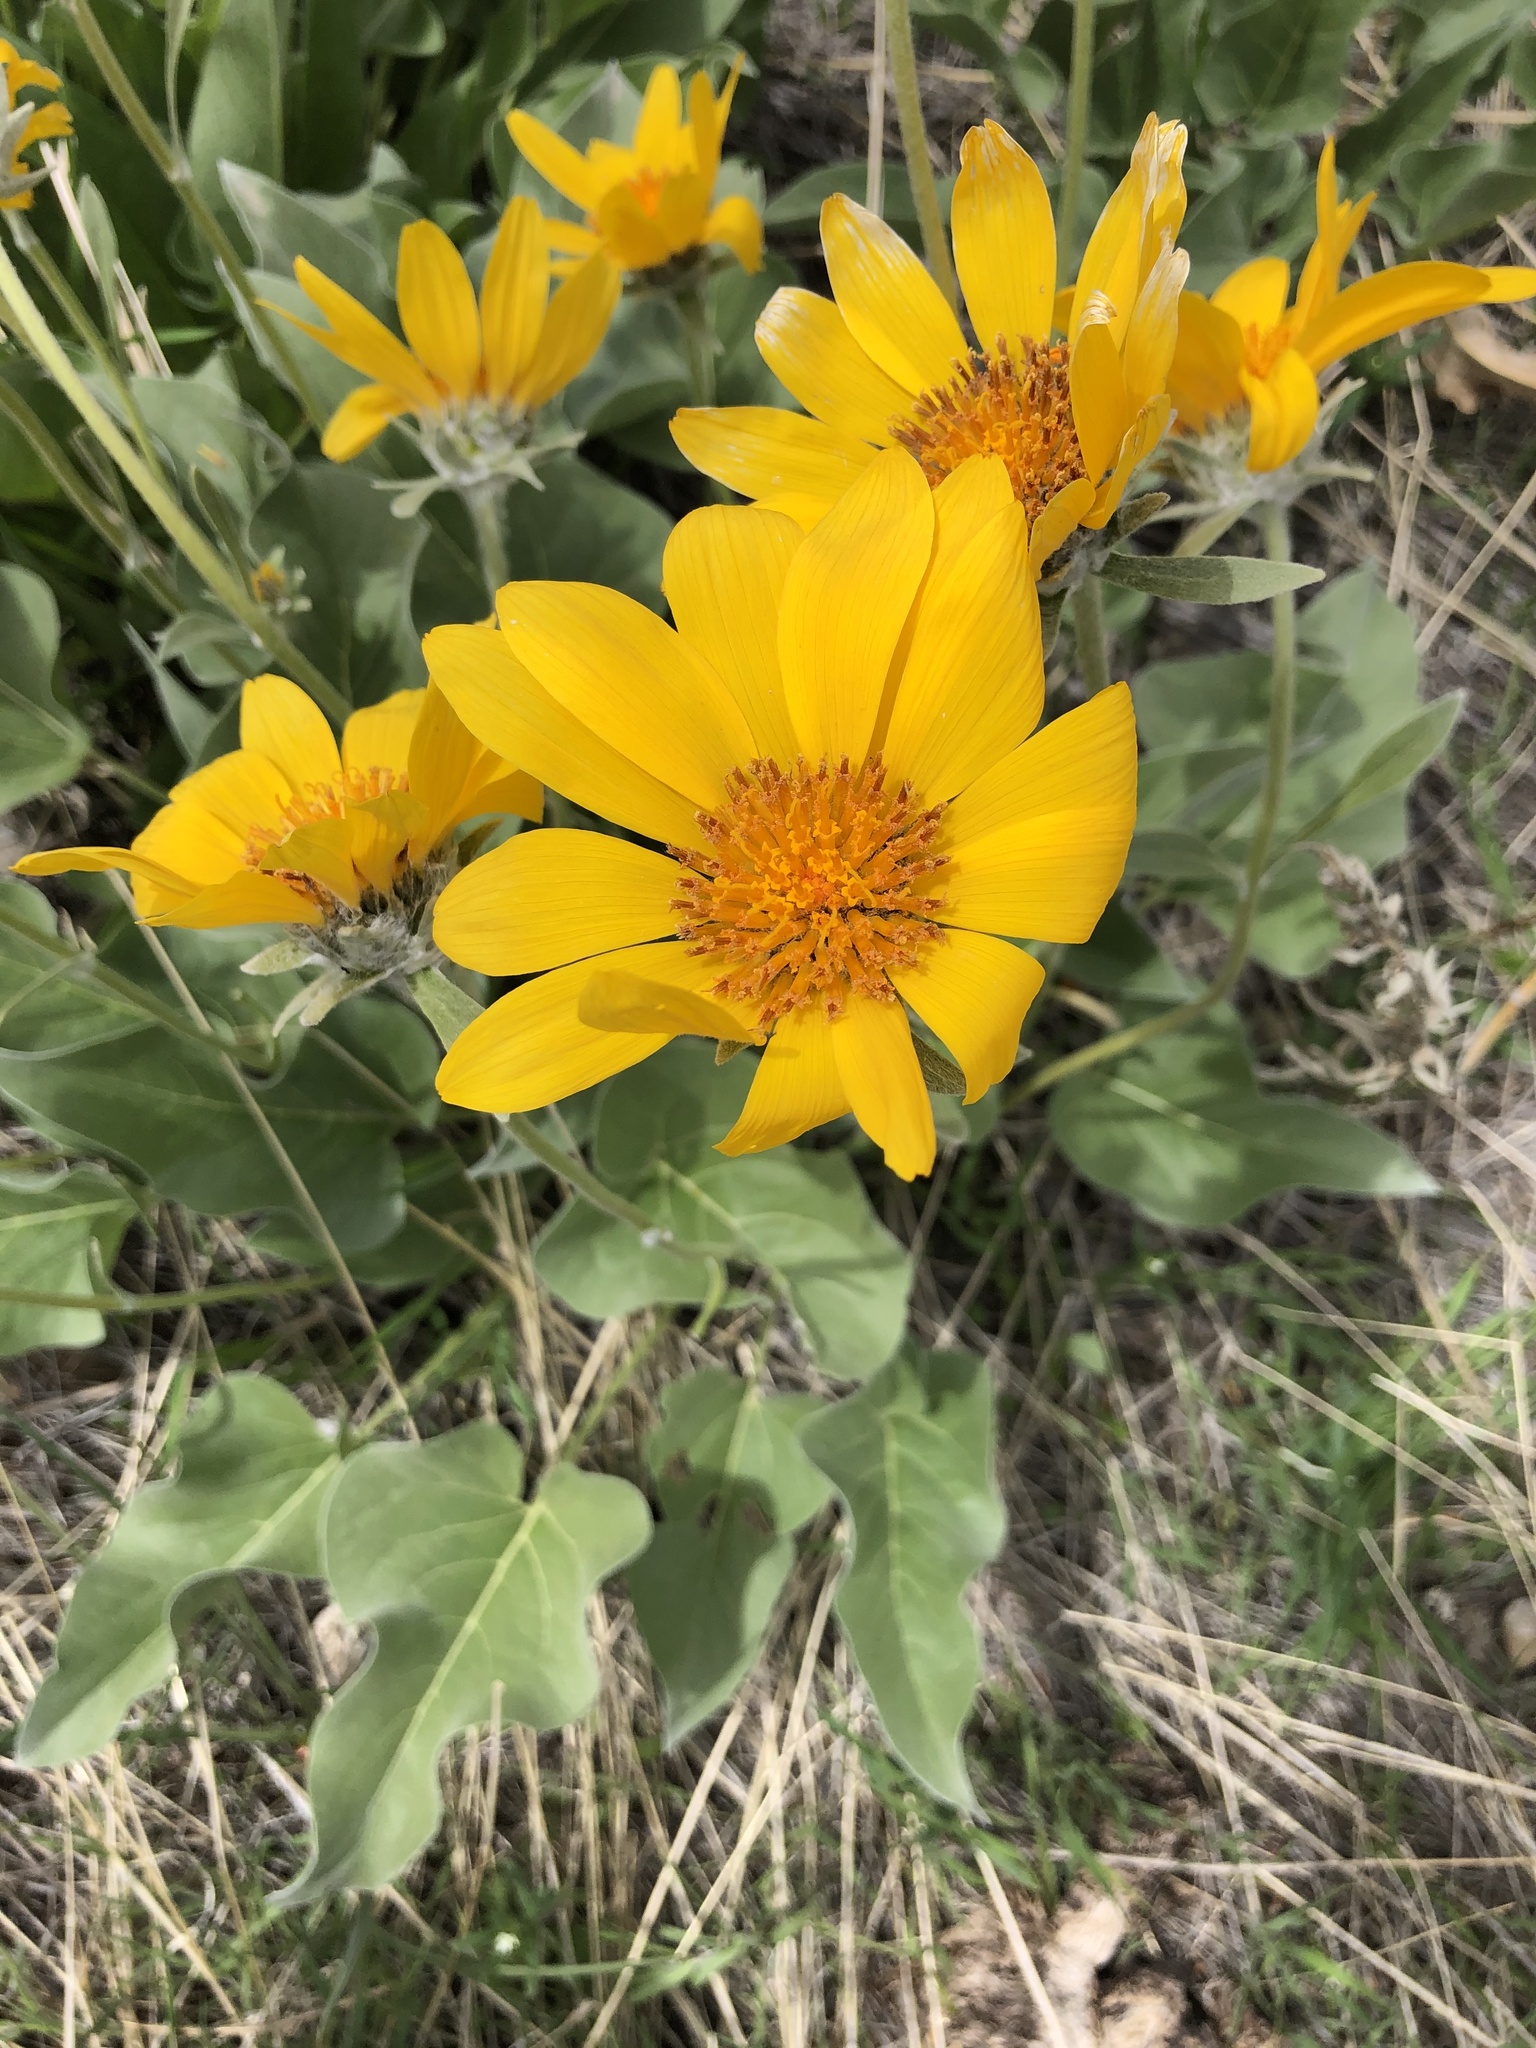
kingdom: Plantae
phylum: Tracheophyta
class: Magnoliopsida
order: Asterales
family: Asteraceae
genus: Wyethia
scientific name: Wyethia sagittata
